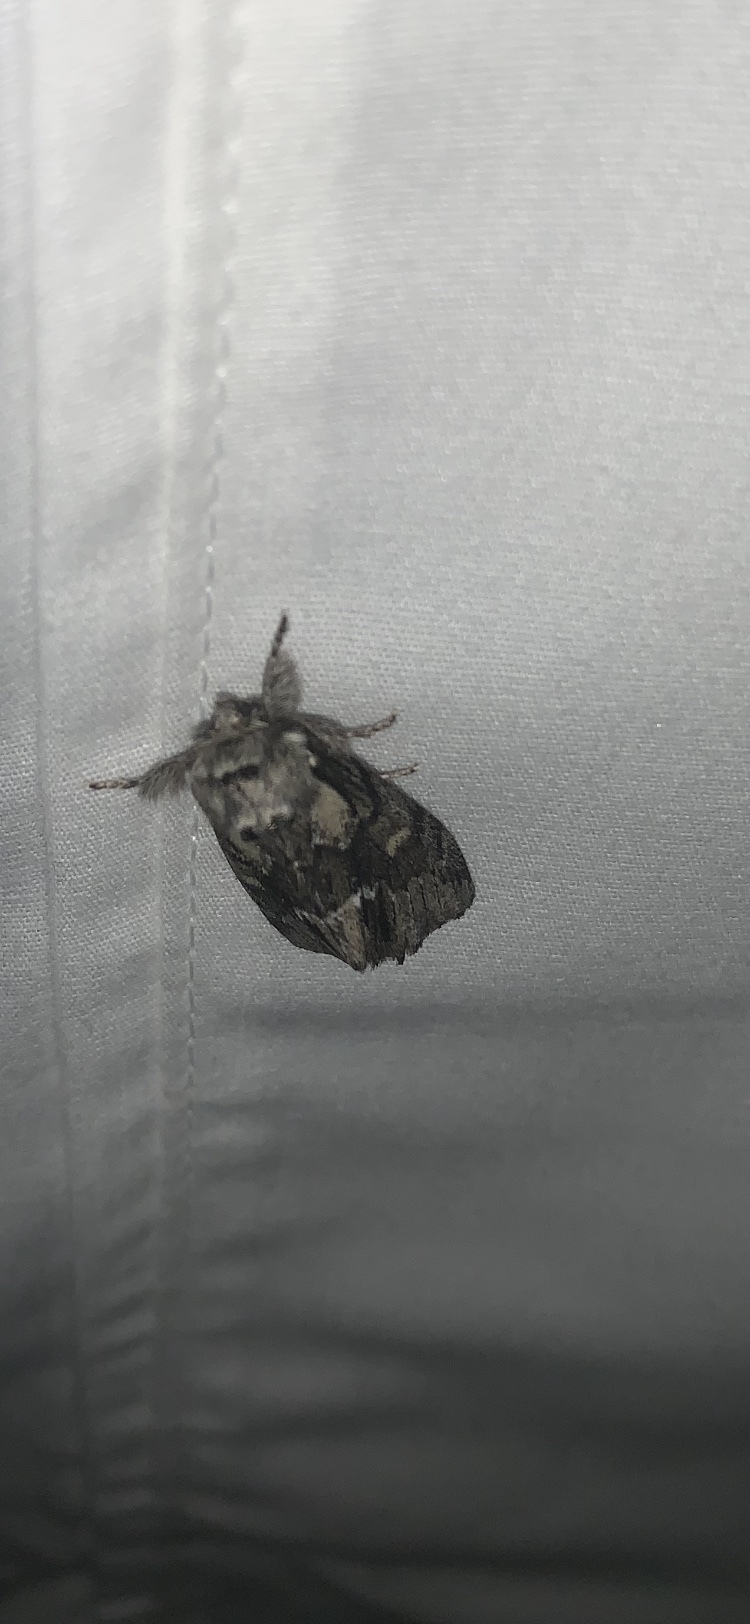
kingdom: Animalia
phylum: Arthropoda
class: Insecta
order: Lepidoptera
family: Notodontidae
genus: Paraeschra
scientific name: Paraeschra georgica
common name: Georgian prominent
